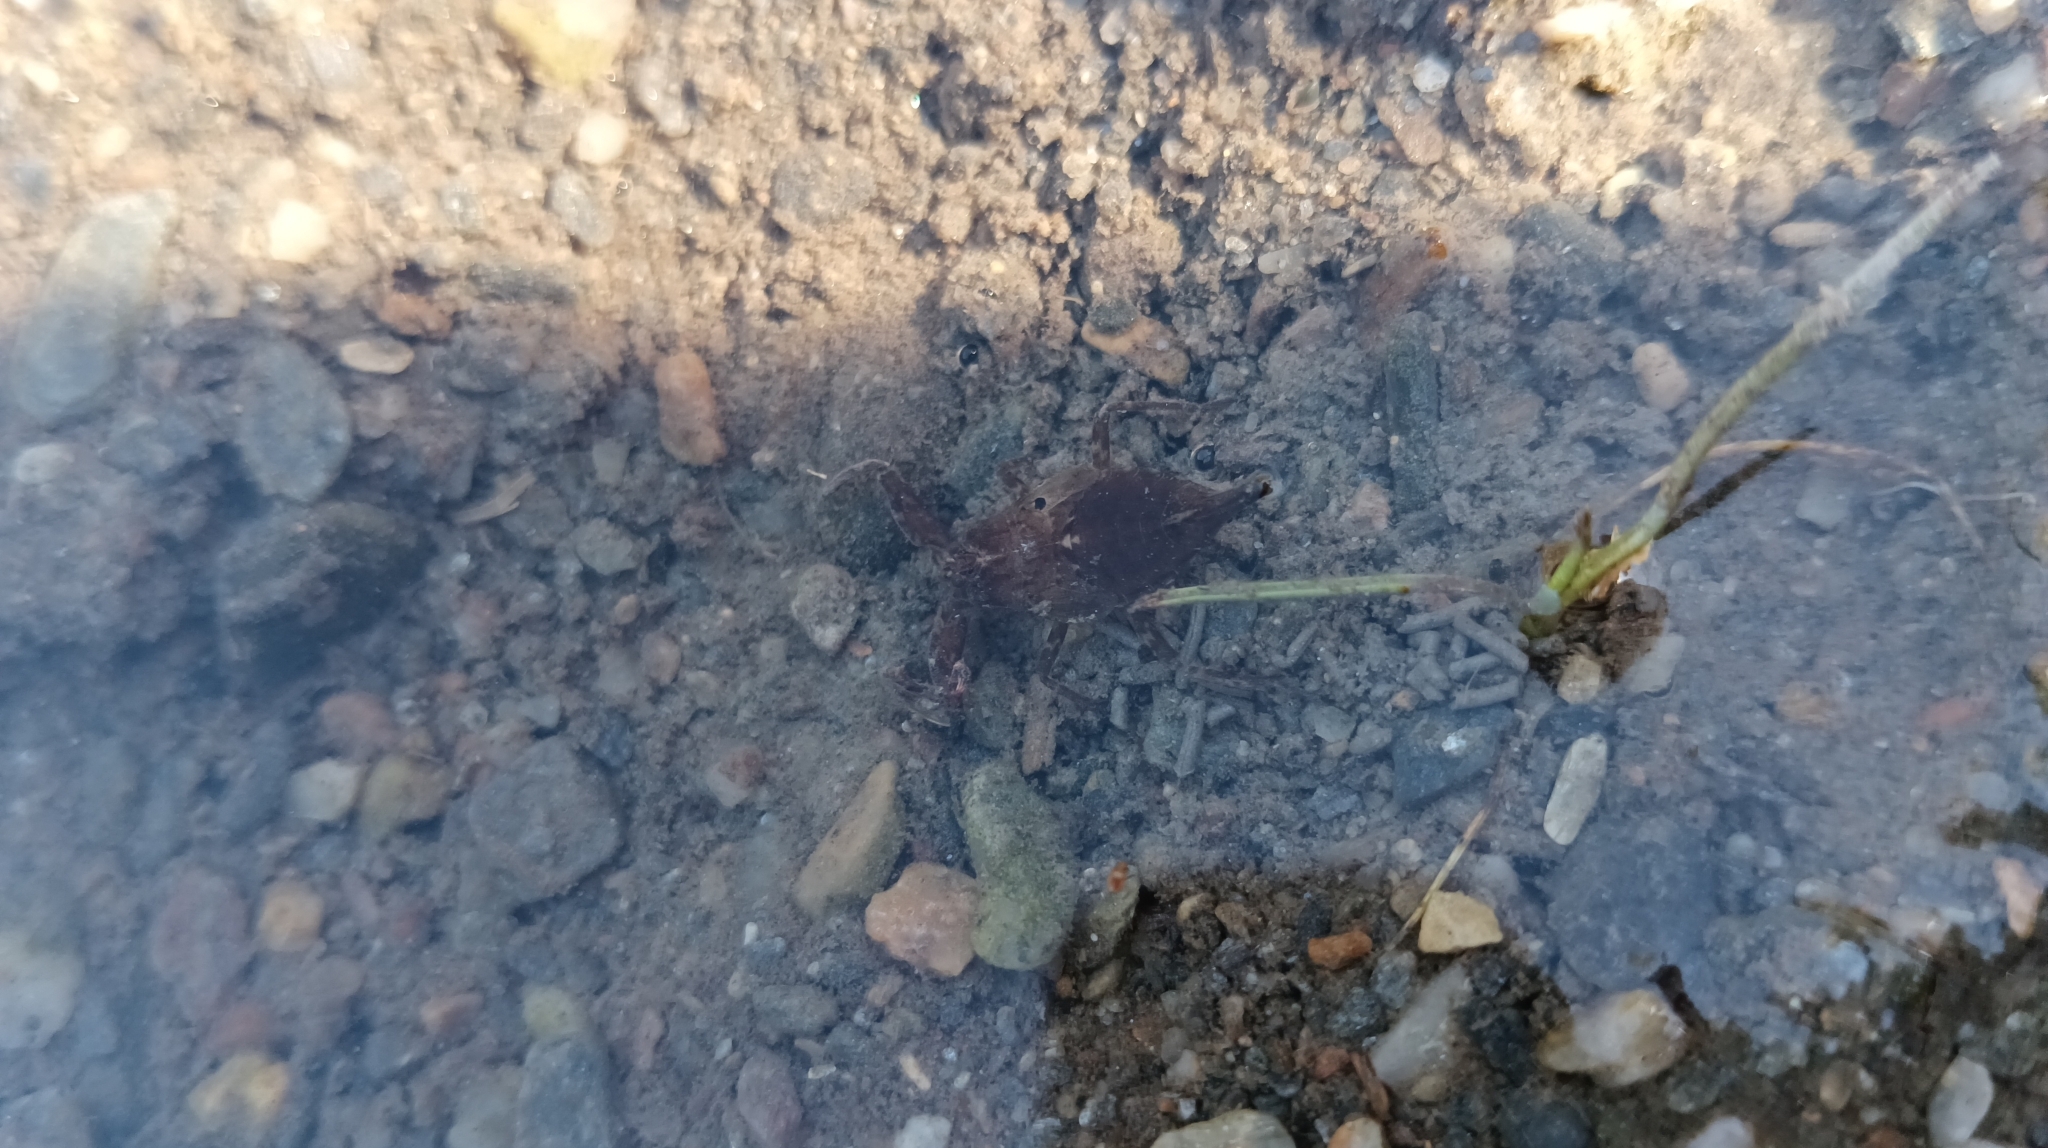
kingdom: Animalia
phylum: Arthropoda
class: Insecta
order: Hemiptera
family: Nepidae
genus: Nepa
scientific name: Nepa cinerea
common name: Water scorpion
